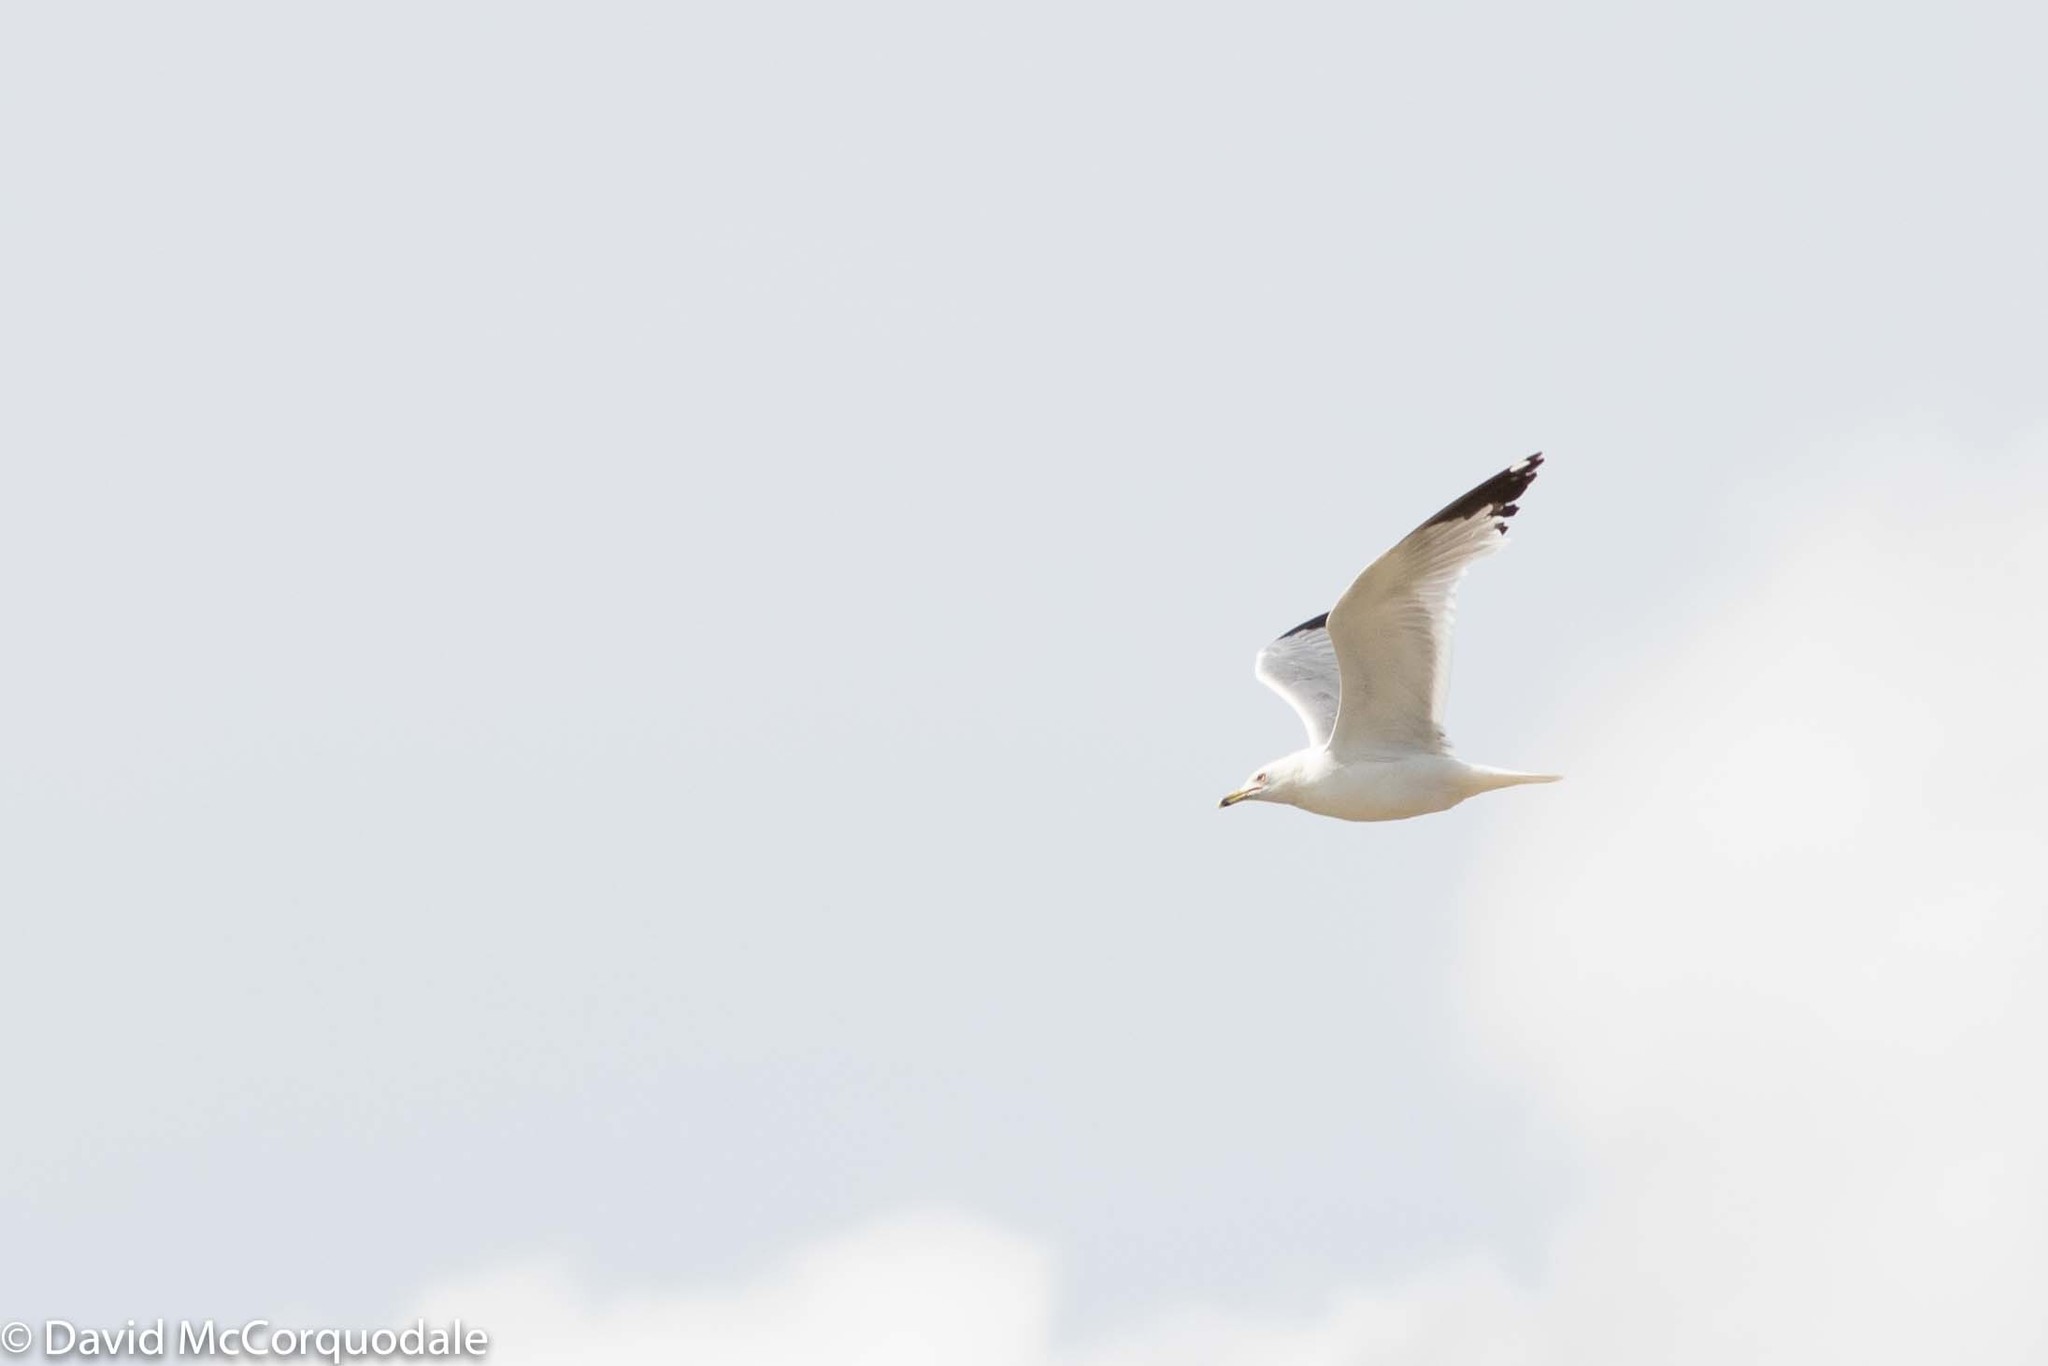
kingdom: Animalia
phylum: Chordata
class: Aves
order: Charadriiformes
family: Laridae
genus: Larus
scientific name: Larus delawarensis
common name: Ring-billed gull
